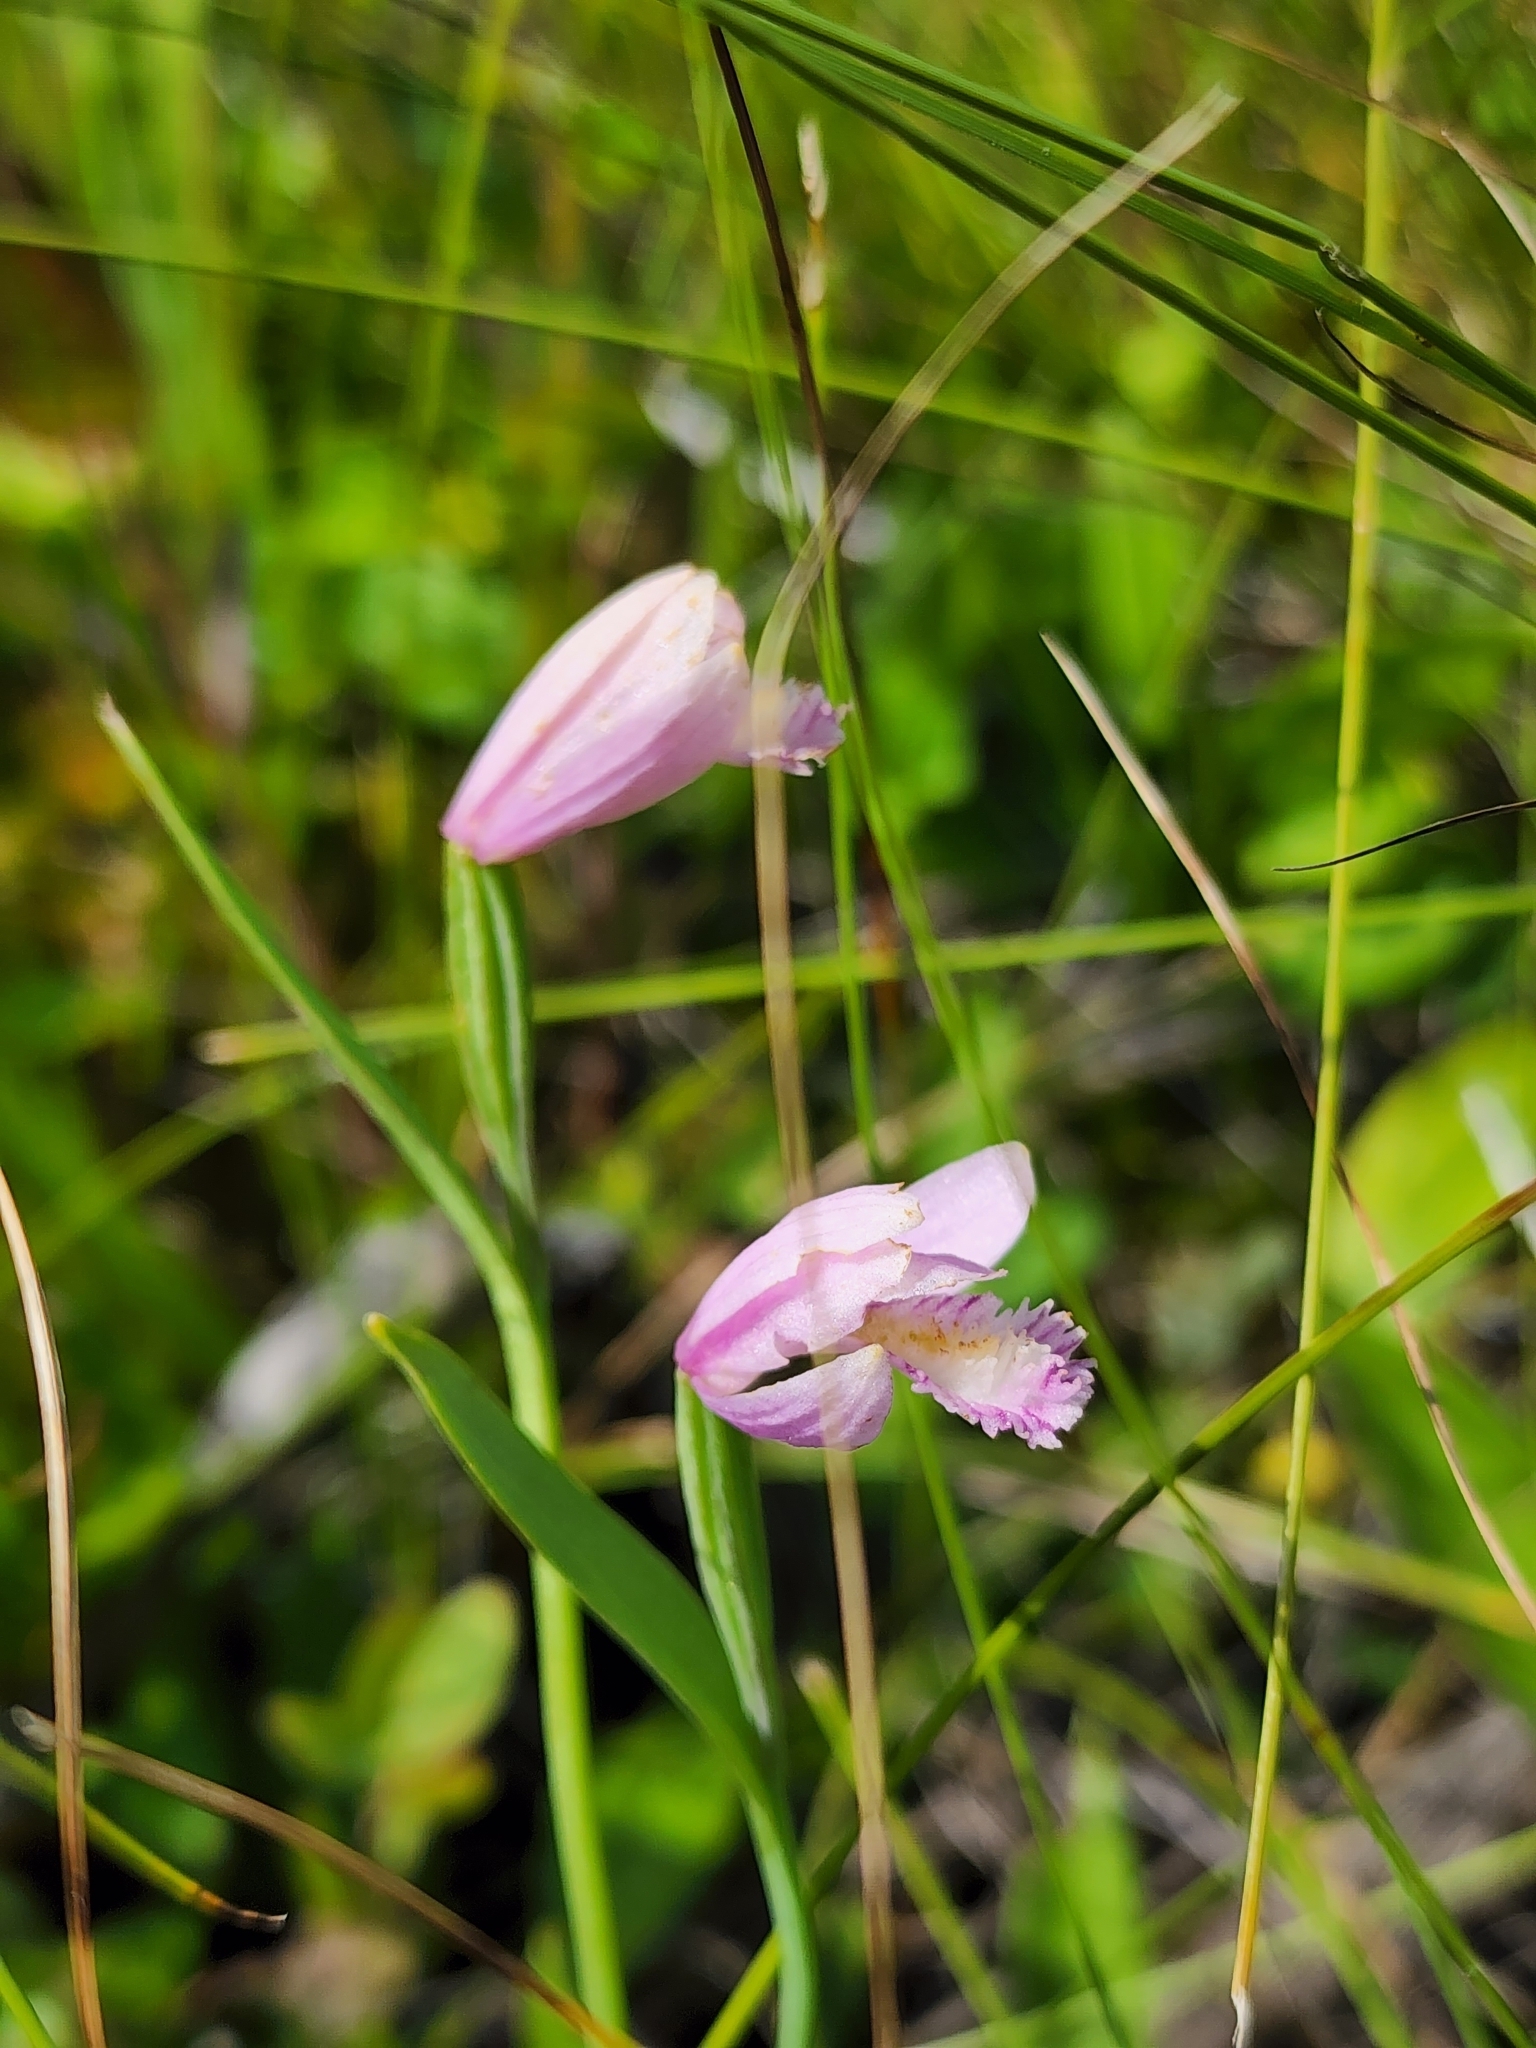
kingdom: Plantae
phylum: Tracheophyta
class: Liliopsida
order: Asparagales
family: Orchidaceae
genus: Pogonia
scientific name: Pogonia ophioglossoides
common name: Rose pogonia
